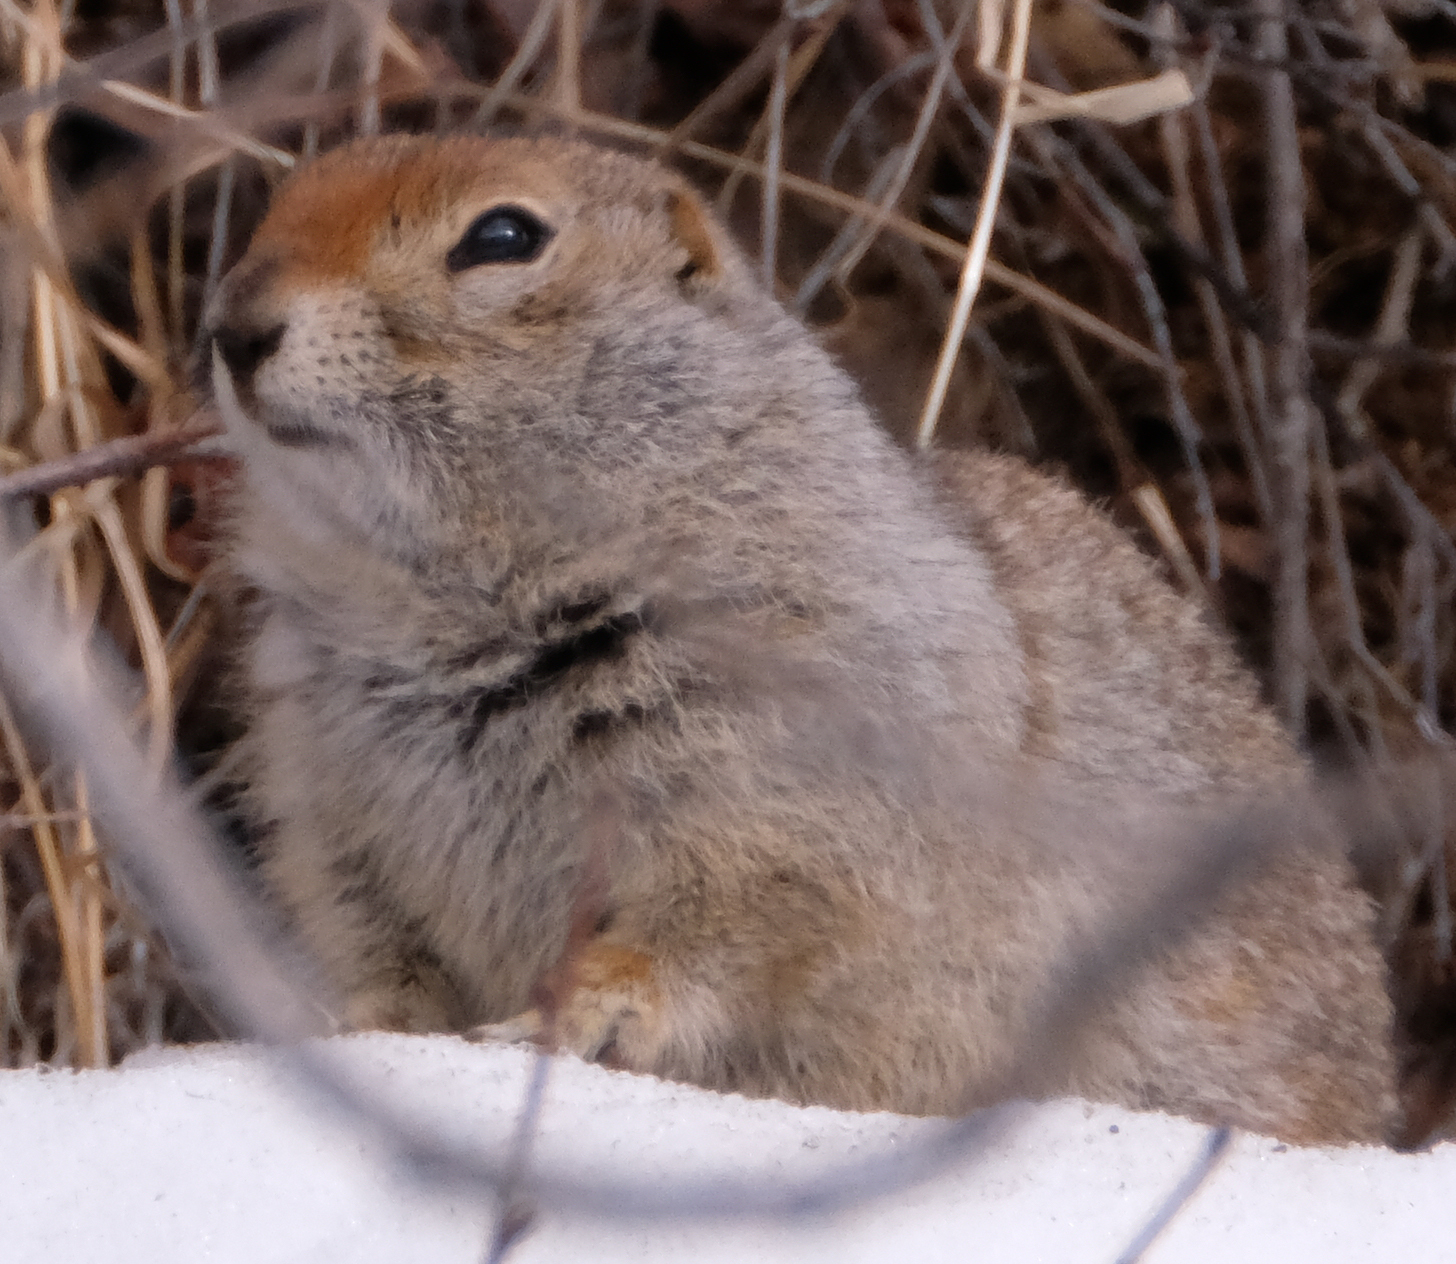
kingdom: Animalia
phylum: Chordata
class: Mammalia
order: Rodentia
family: Sciuridae
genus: Urocitellus
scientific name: Urocitellus parryii
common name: Arctic ground squirrel
